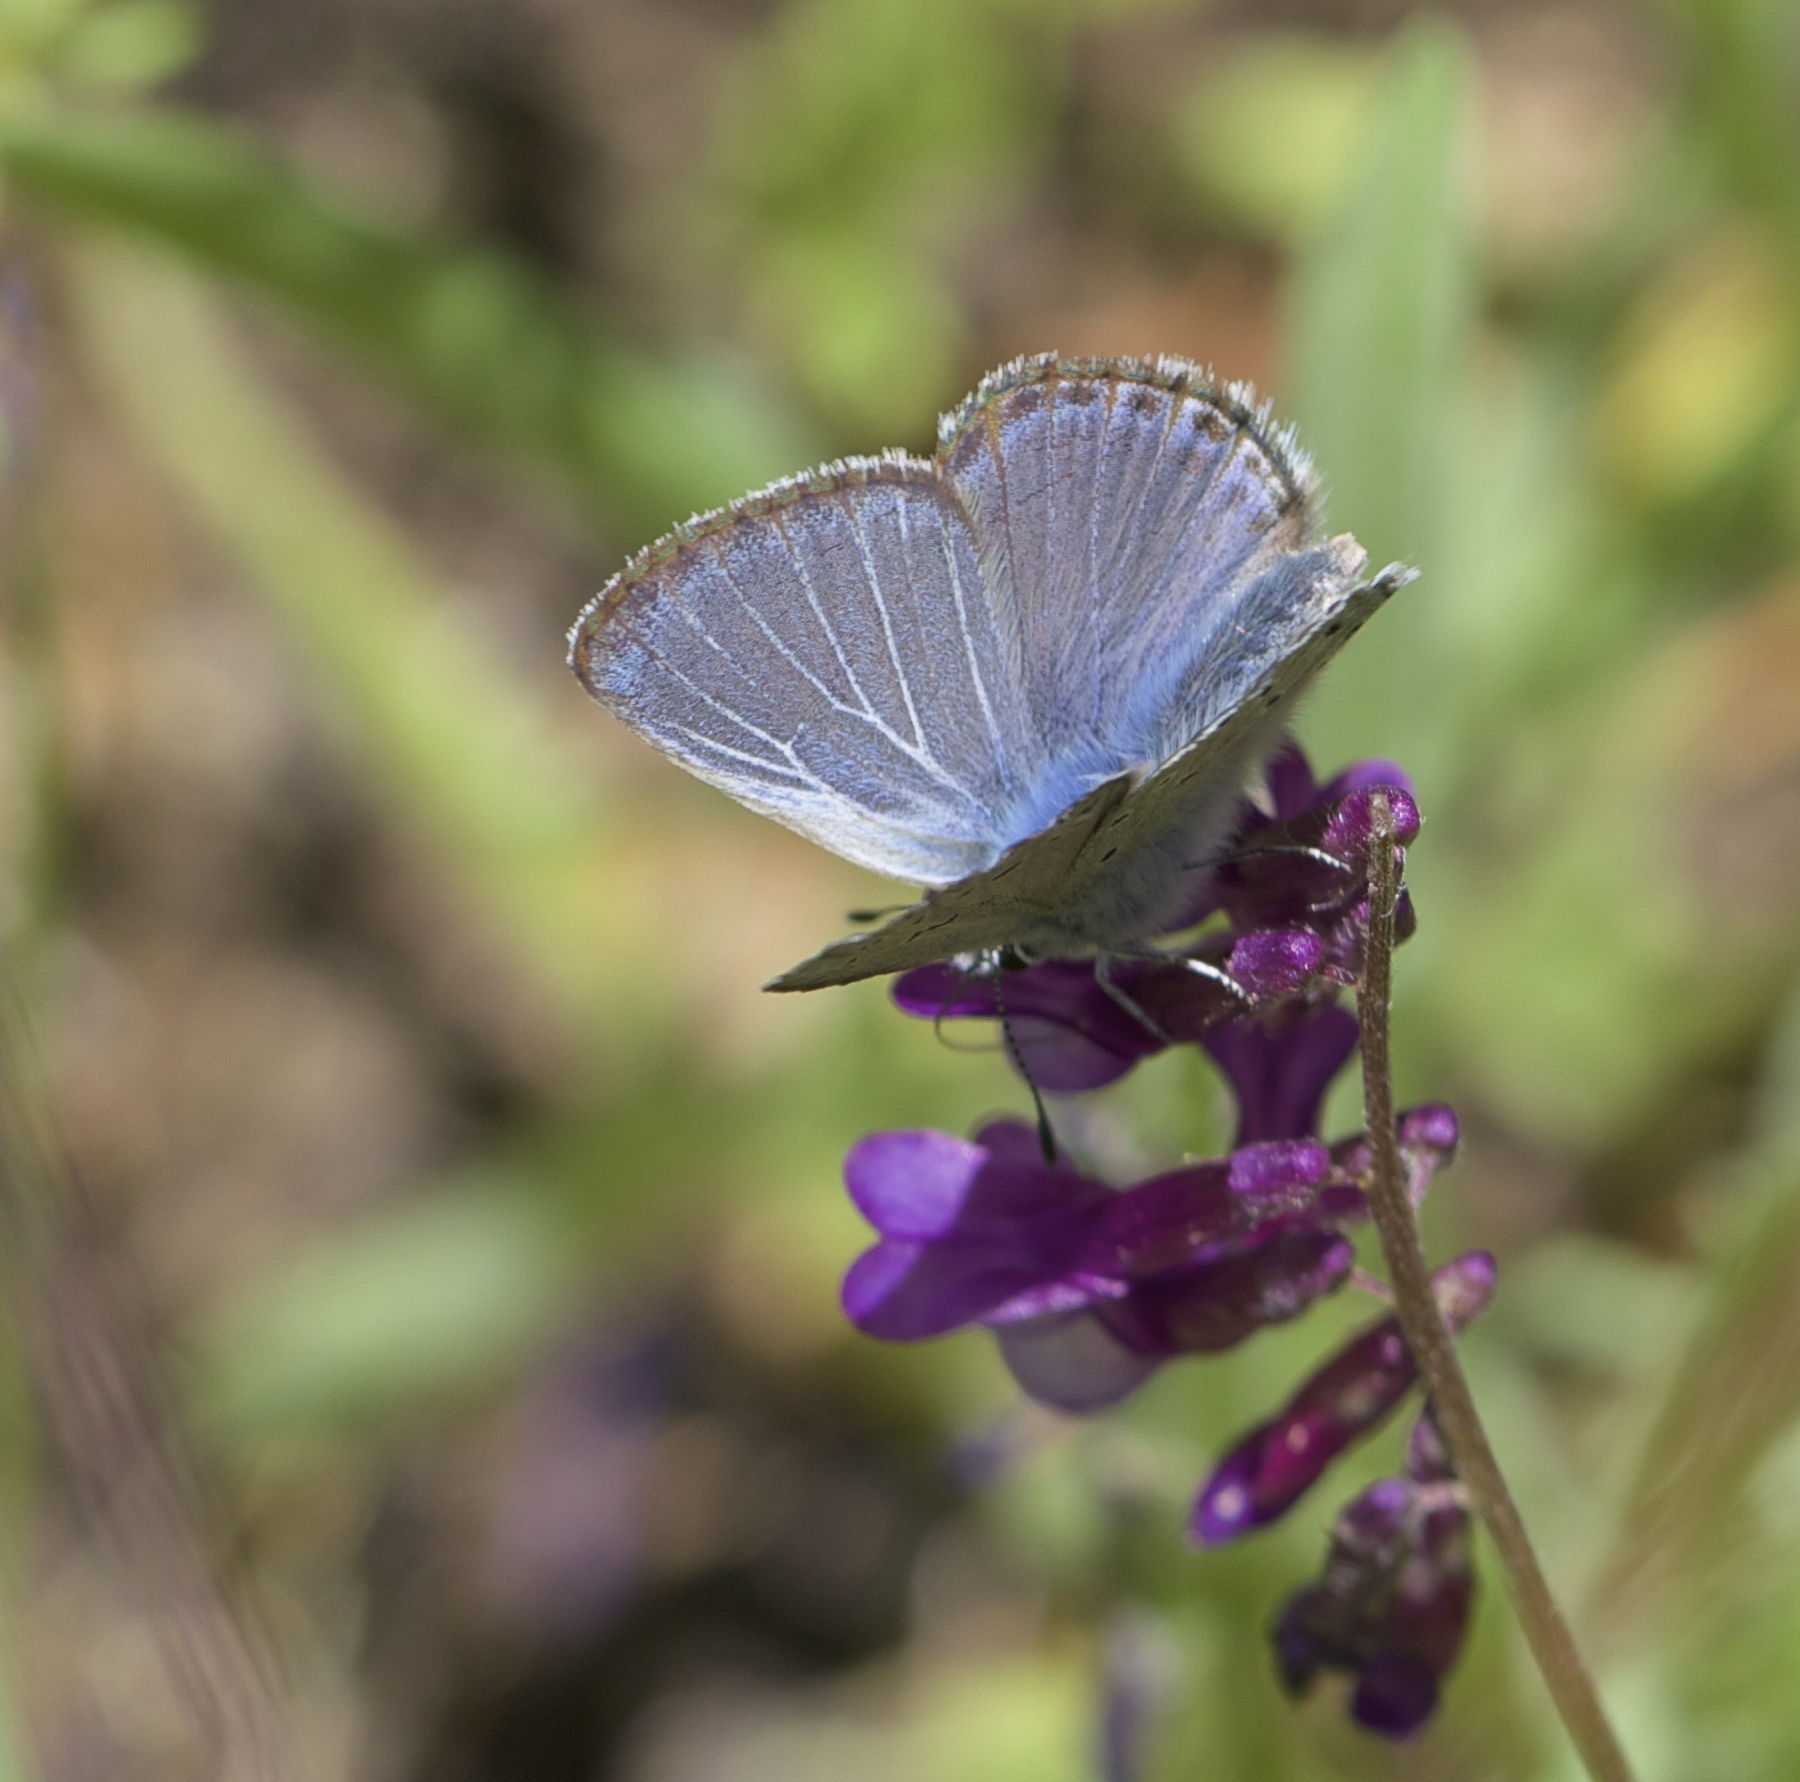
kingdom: Animalia
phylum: Arthropoda
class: Insecta
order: Lepidoptera
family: Lycaenidae
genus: Icaricia
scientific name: Icaricia icarioides
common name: Boisduval's blue
